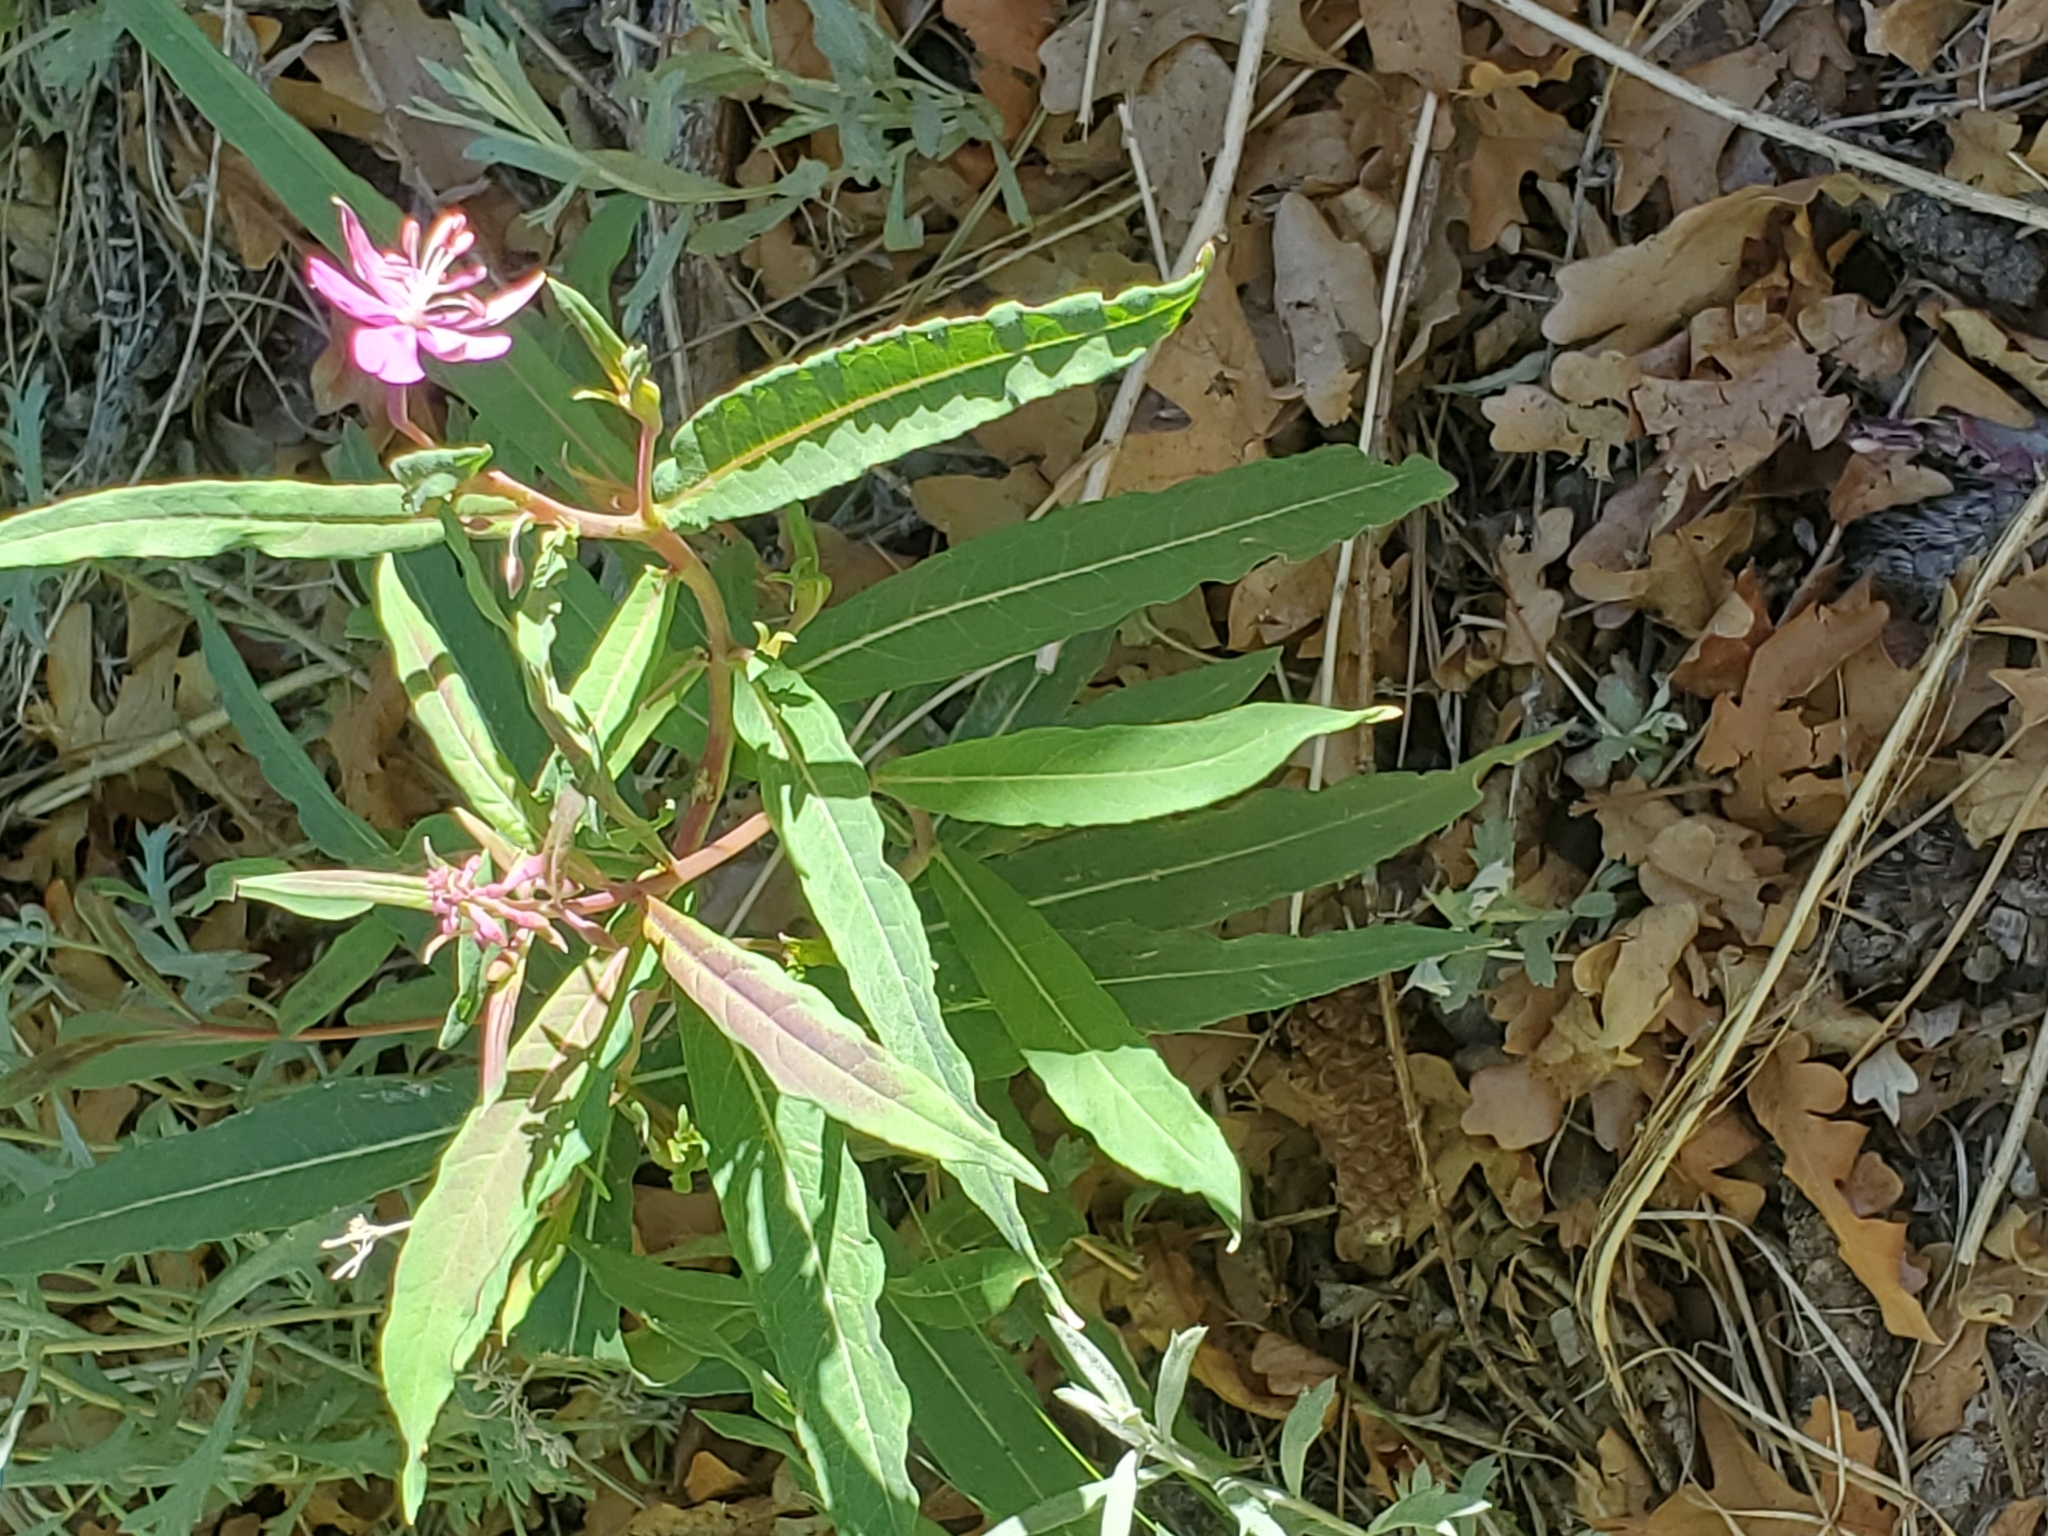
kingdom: Plantae
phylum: Tracheophyta
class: Magnoliopsida
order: Myrtales
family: Onagraceae
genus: Chamaenerion
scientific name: Chamaenerion angustifolium
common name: Fireweed
